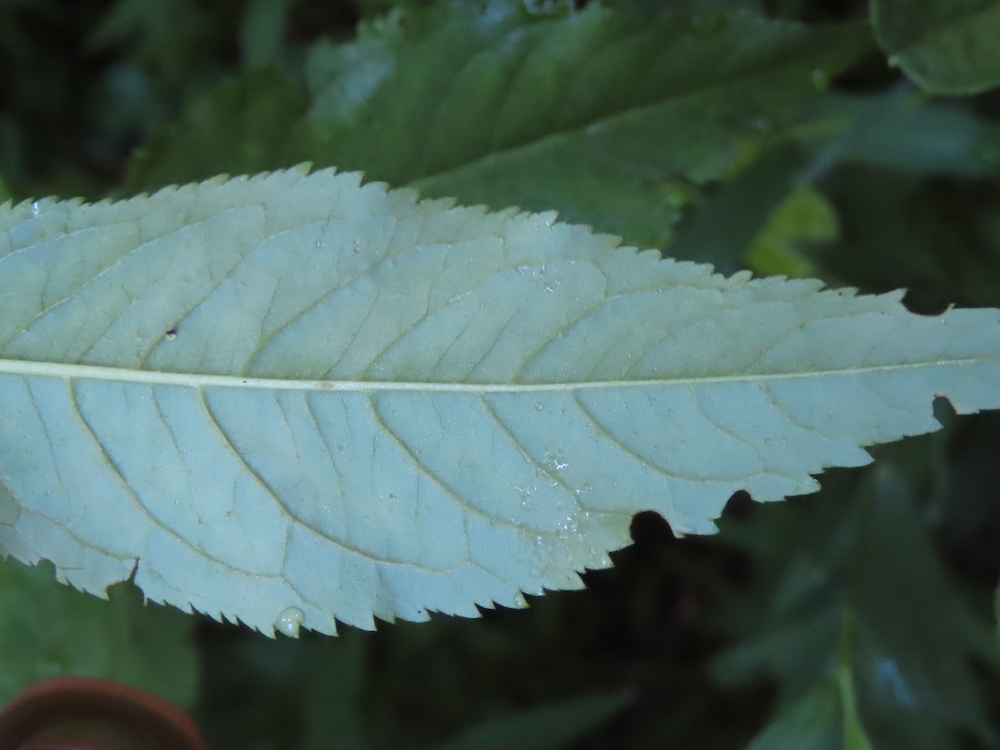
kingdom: Plantae
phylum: Tracheophyta
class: Magnoliopsida
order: Saxifragales
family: Penthoraceae
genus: Penthorum
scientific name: Penthorum sedoides
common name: Ditch stonecrop
